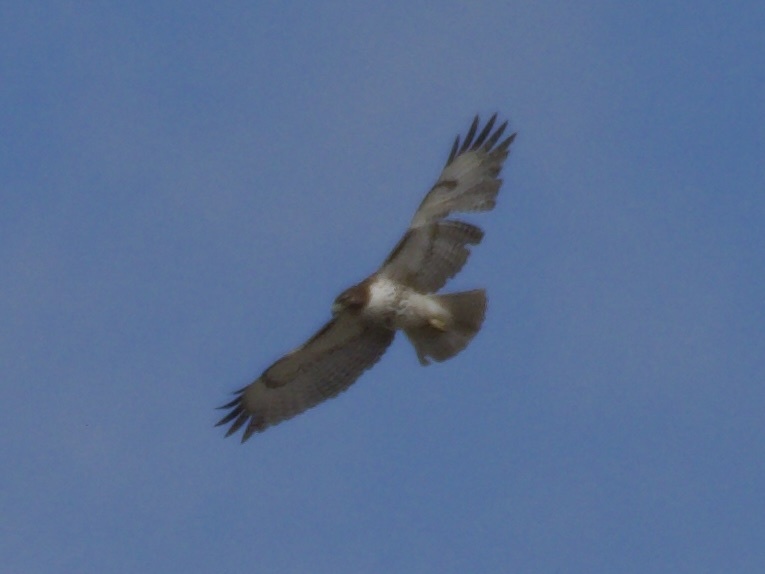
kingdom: Animalia
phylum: Chordata
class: Aves
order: Accipitriformes
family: Accipitridae
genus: Buteo
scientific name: Buteo jamaicensis
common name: Red-tailed hawk
